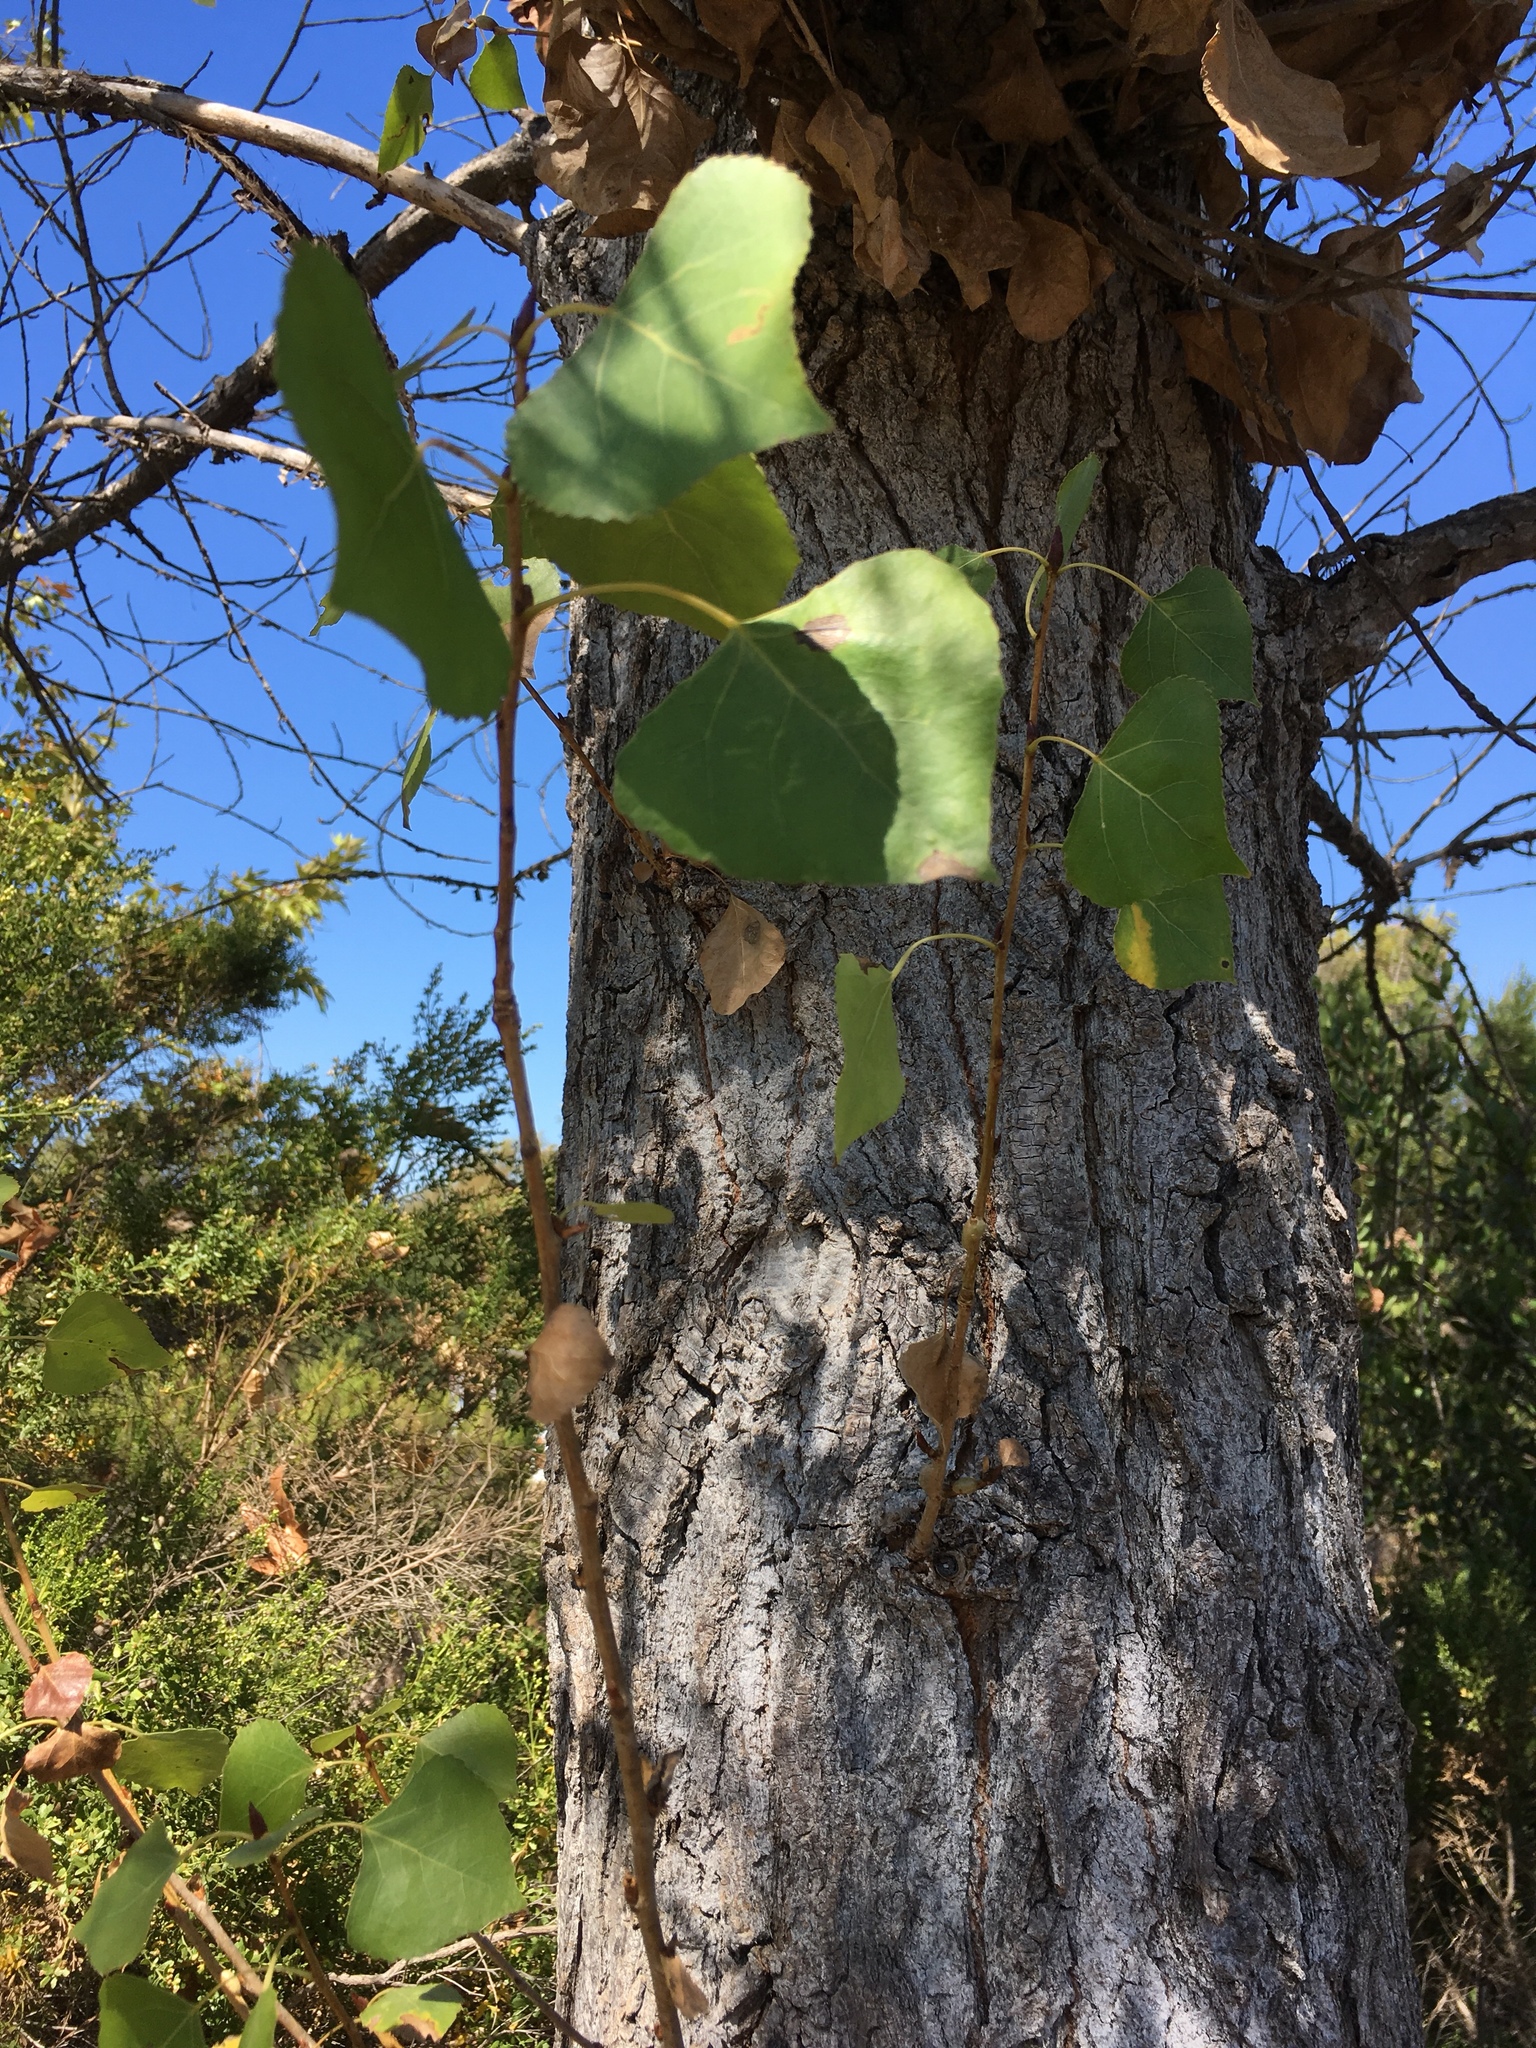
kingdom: Plantae
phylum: Tracheophyta
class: Magnoliopsida
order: Malpighiales
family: Salicaceae
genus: Populus
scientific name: Populus fremontii
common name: Fremont's cottonwood
